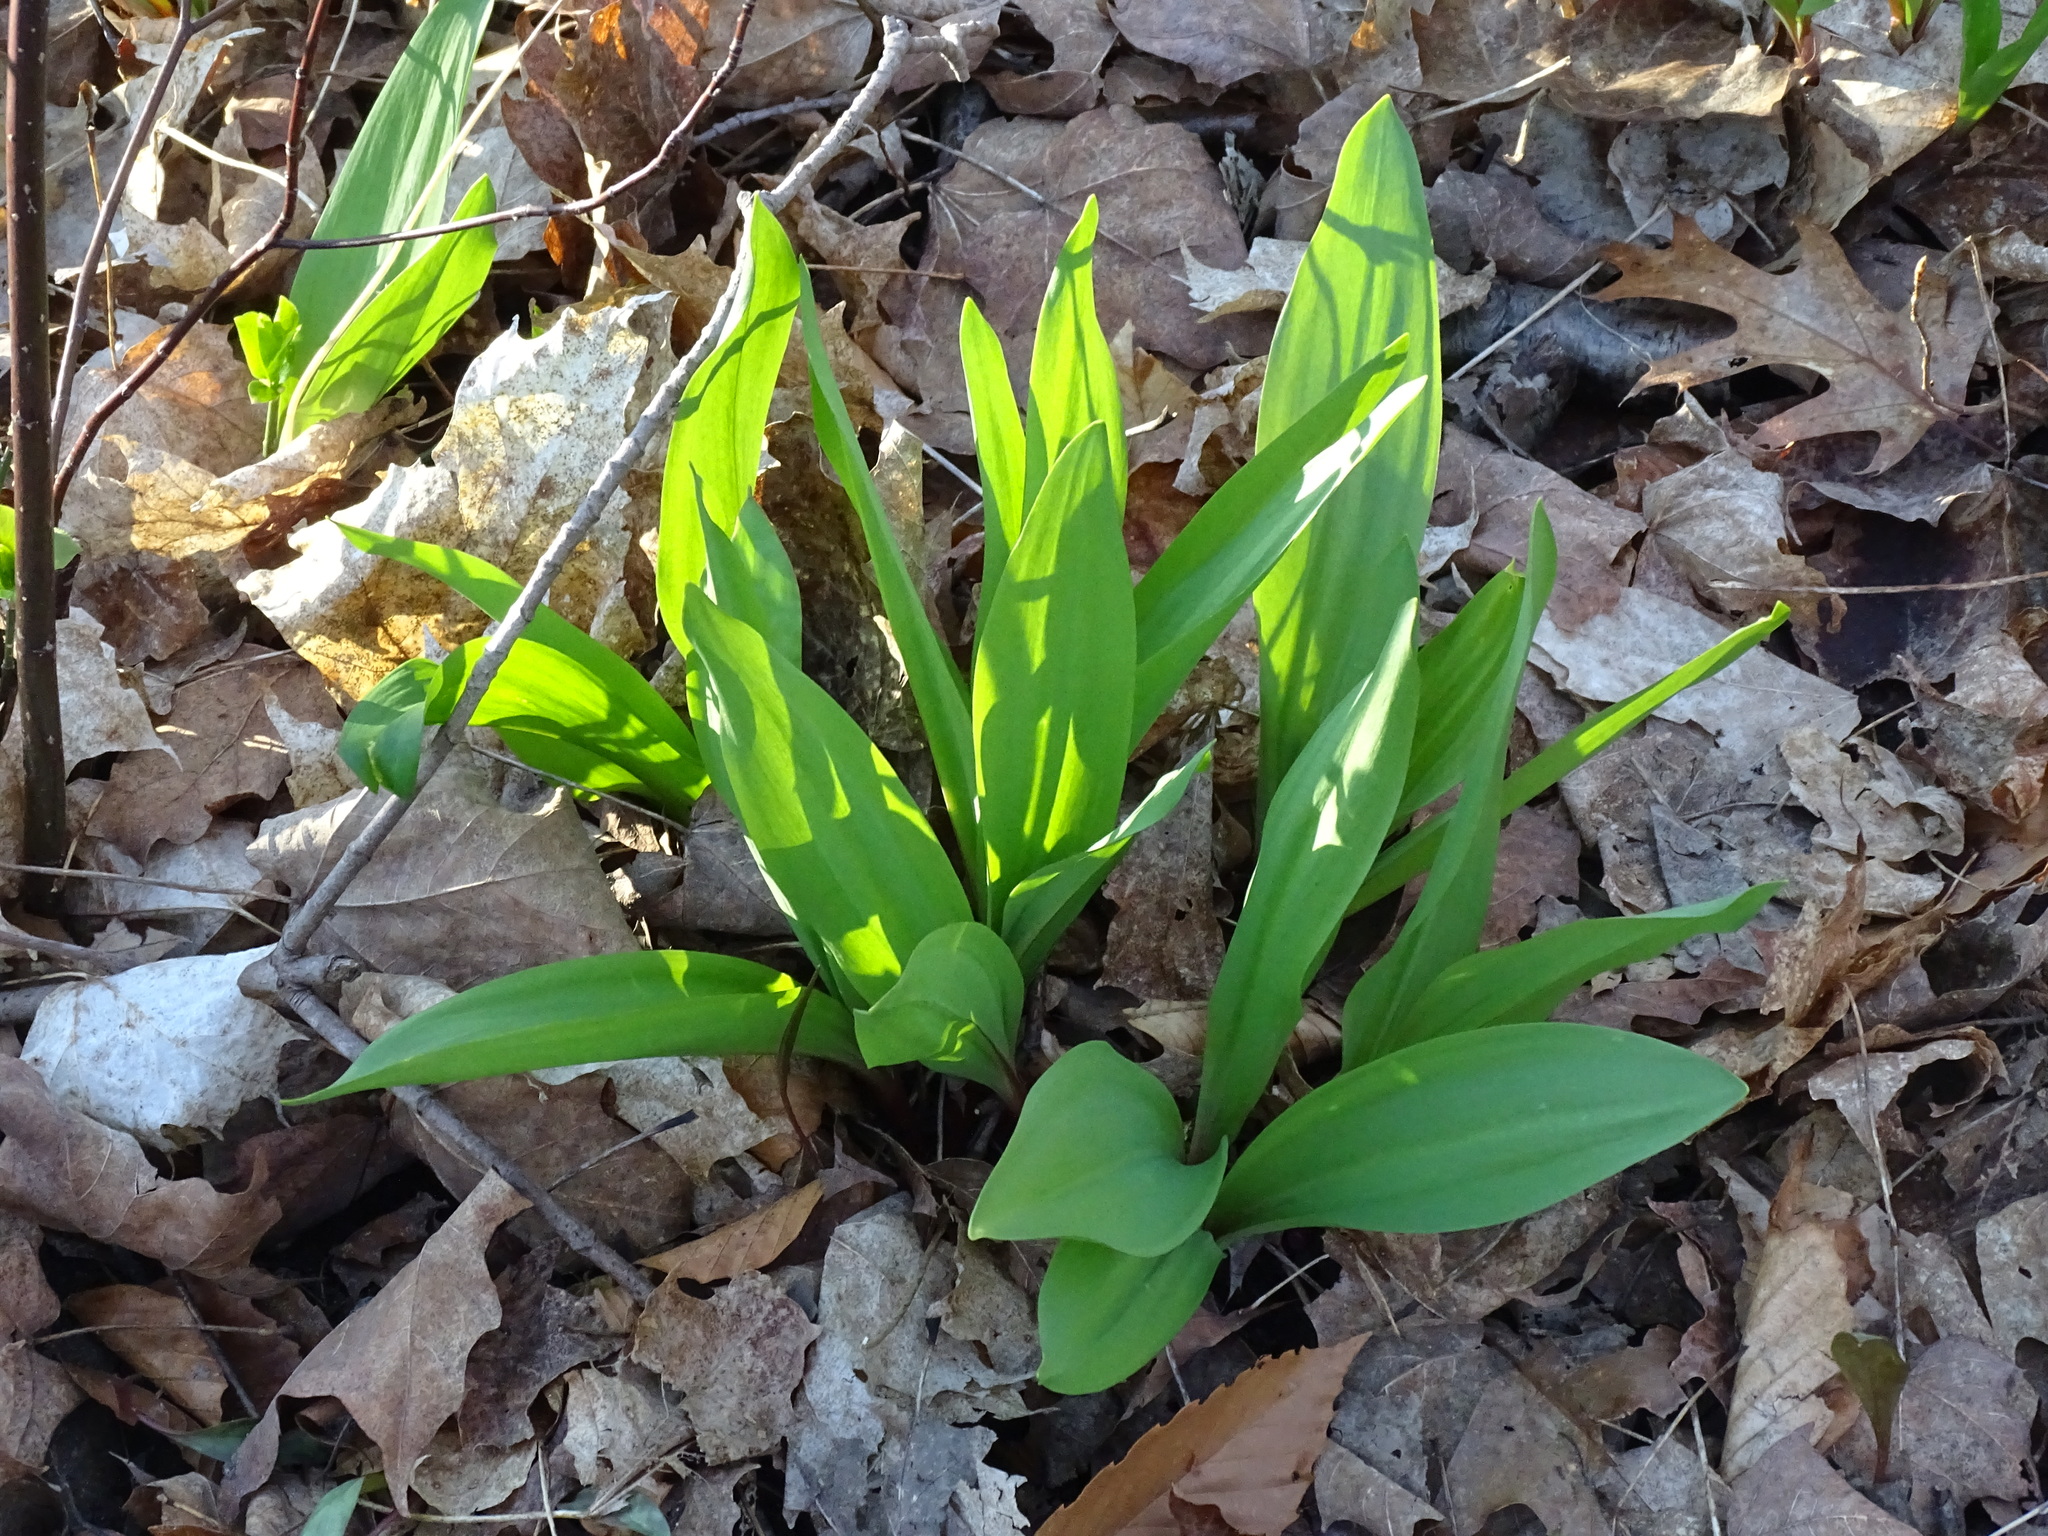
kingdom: Plantae
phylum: Tracheophyta
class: Liliopsida
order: Asparagales
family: Amaryllidaceae
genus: Allium
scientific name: Allium tricoccum
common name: Ramp
